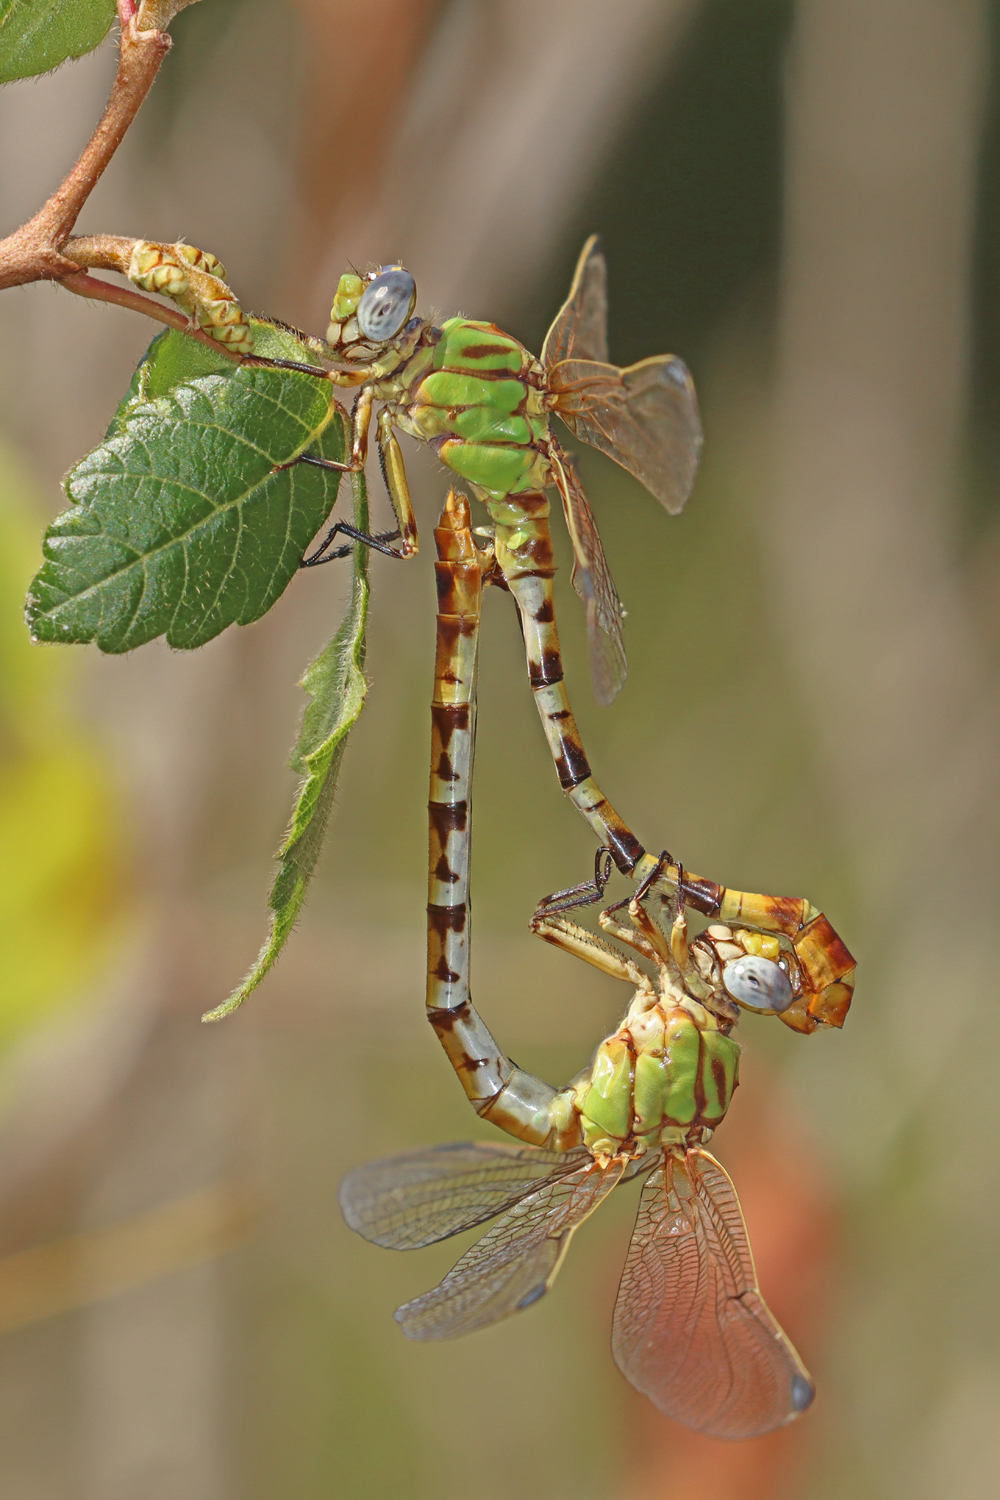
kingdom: Animalia
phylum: Arthropoda
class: Insecta
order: Odonata
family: Gomphidae
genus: Erpetogomphus
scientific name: Erpetogomphus designatus
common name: Eastern ringtail
